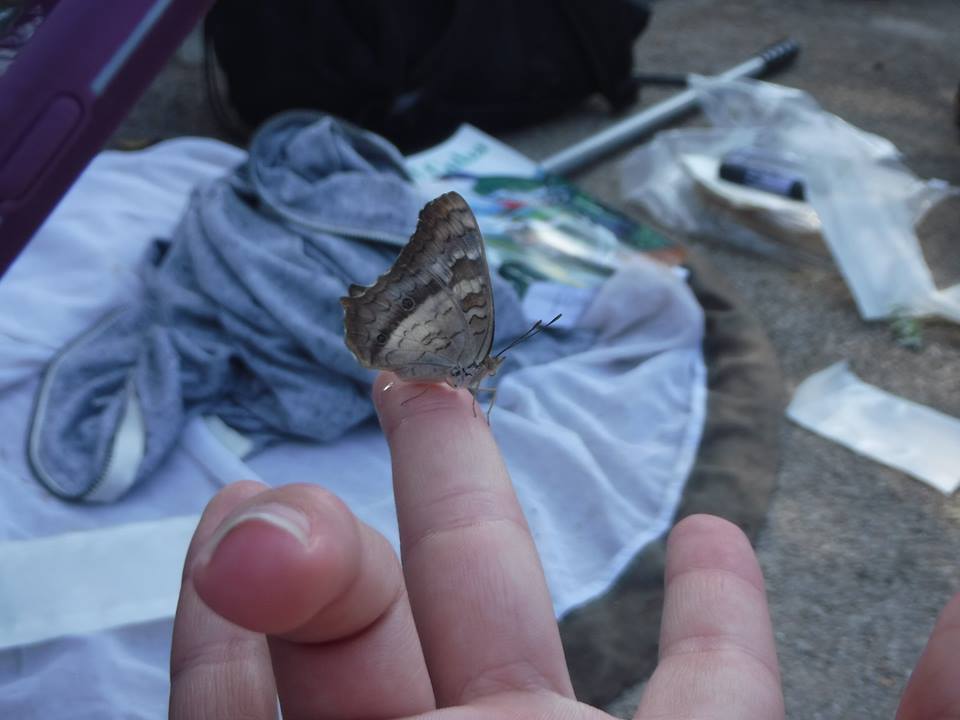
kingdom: Animalia
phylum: Arthropoda
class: Insecta
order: Lepidoptera
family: Nymphalidae
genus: Anartia
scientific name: Anartia jatrophae
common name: White peacock
